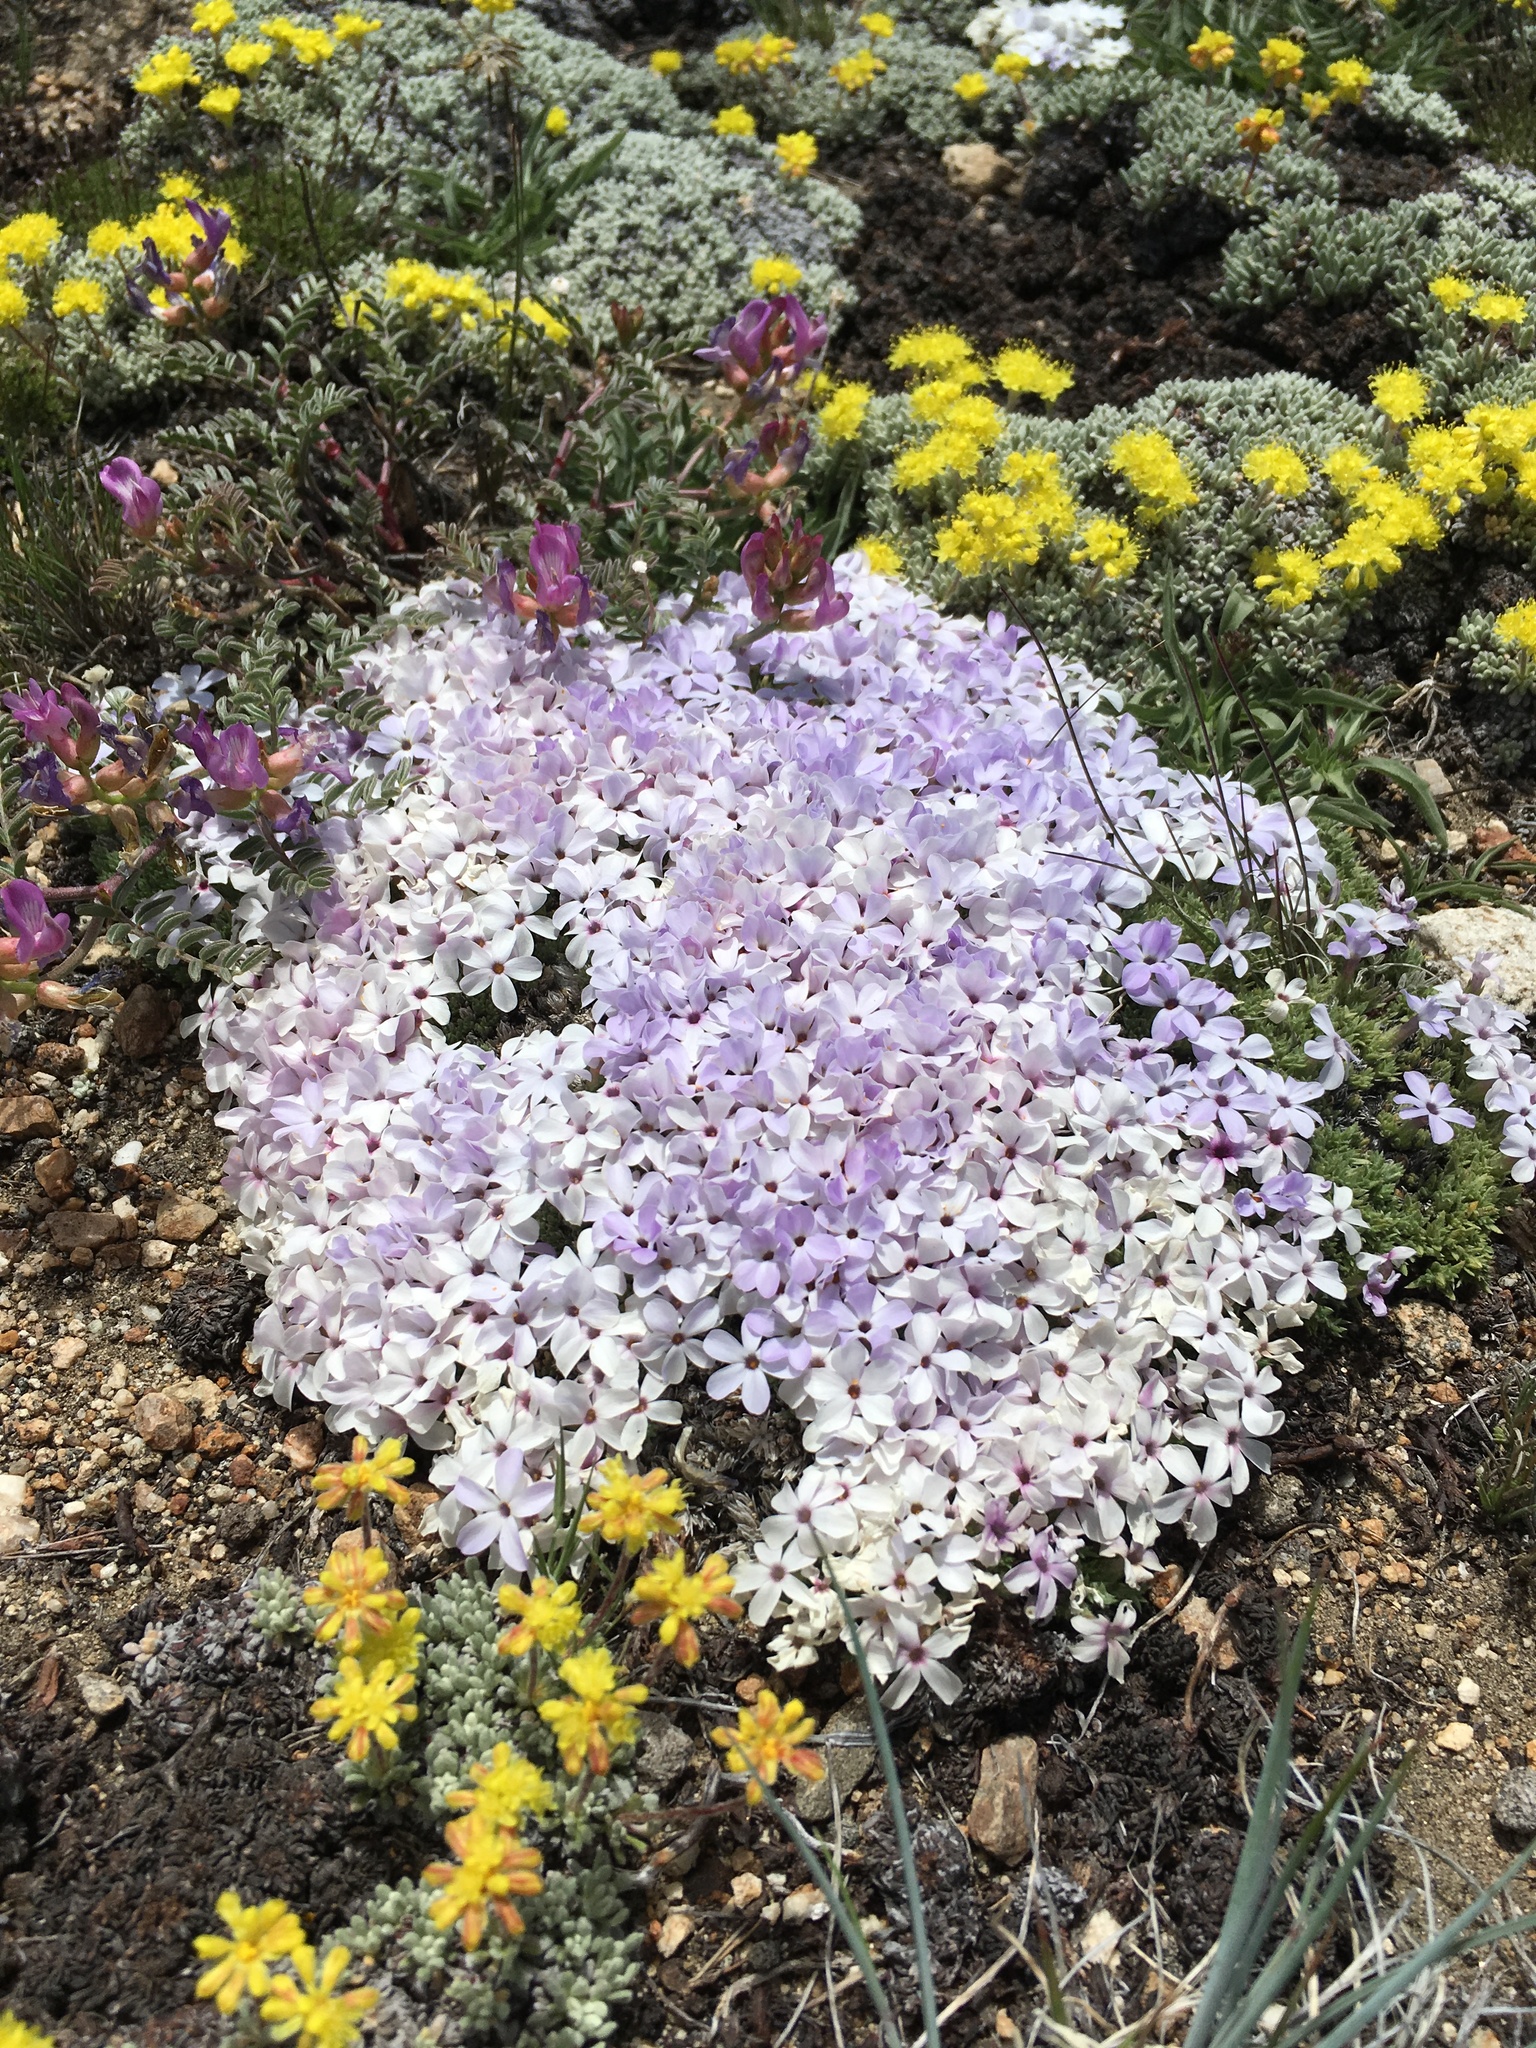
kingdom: Plantae
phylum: Tracheophyta
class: Magnoliopsida
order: Ericales
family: Polemoniaceae
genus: Phlox
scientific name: Phlox condensata
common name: Compact phlox
